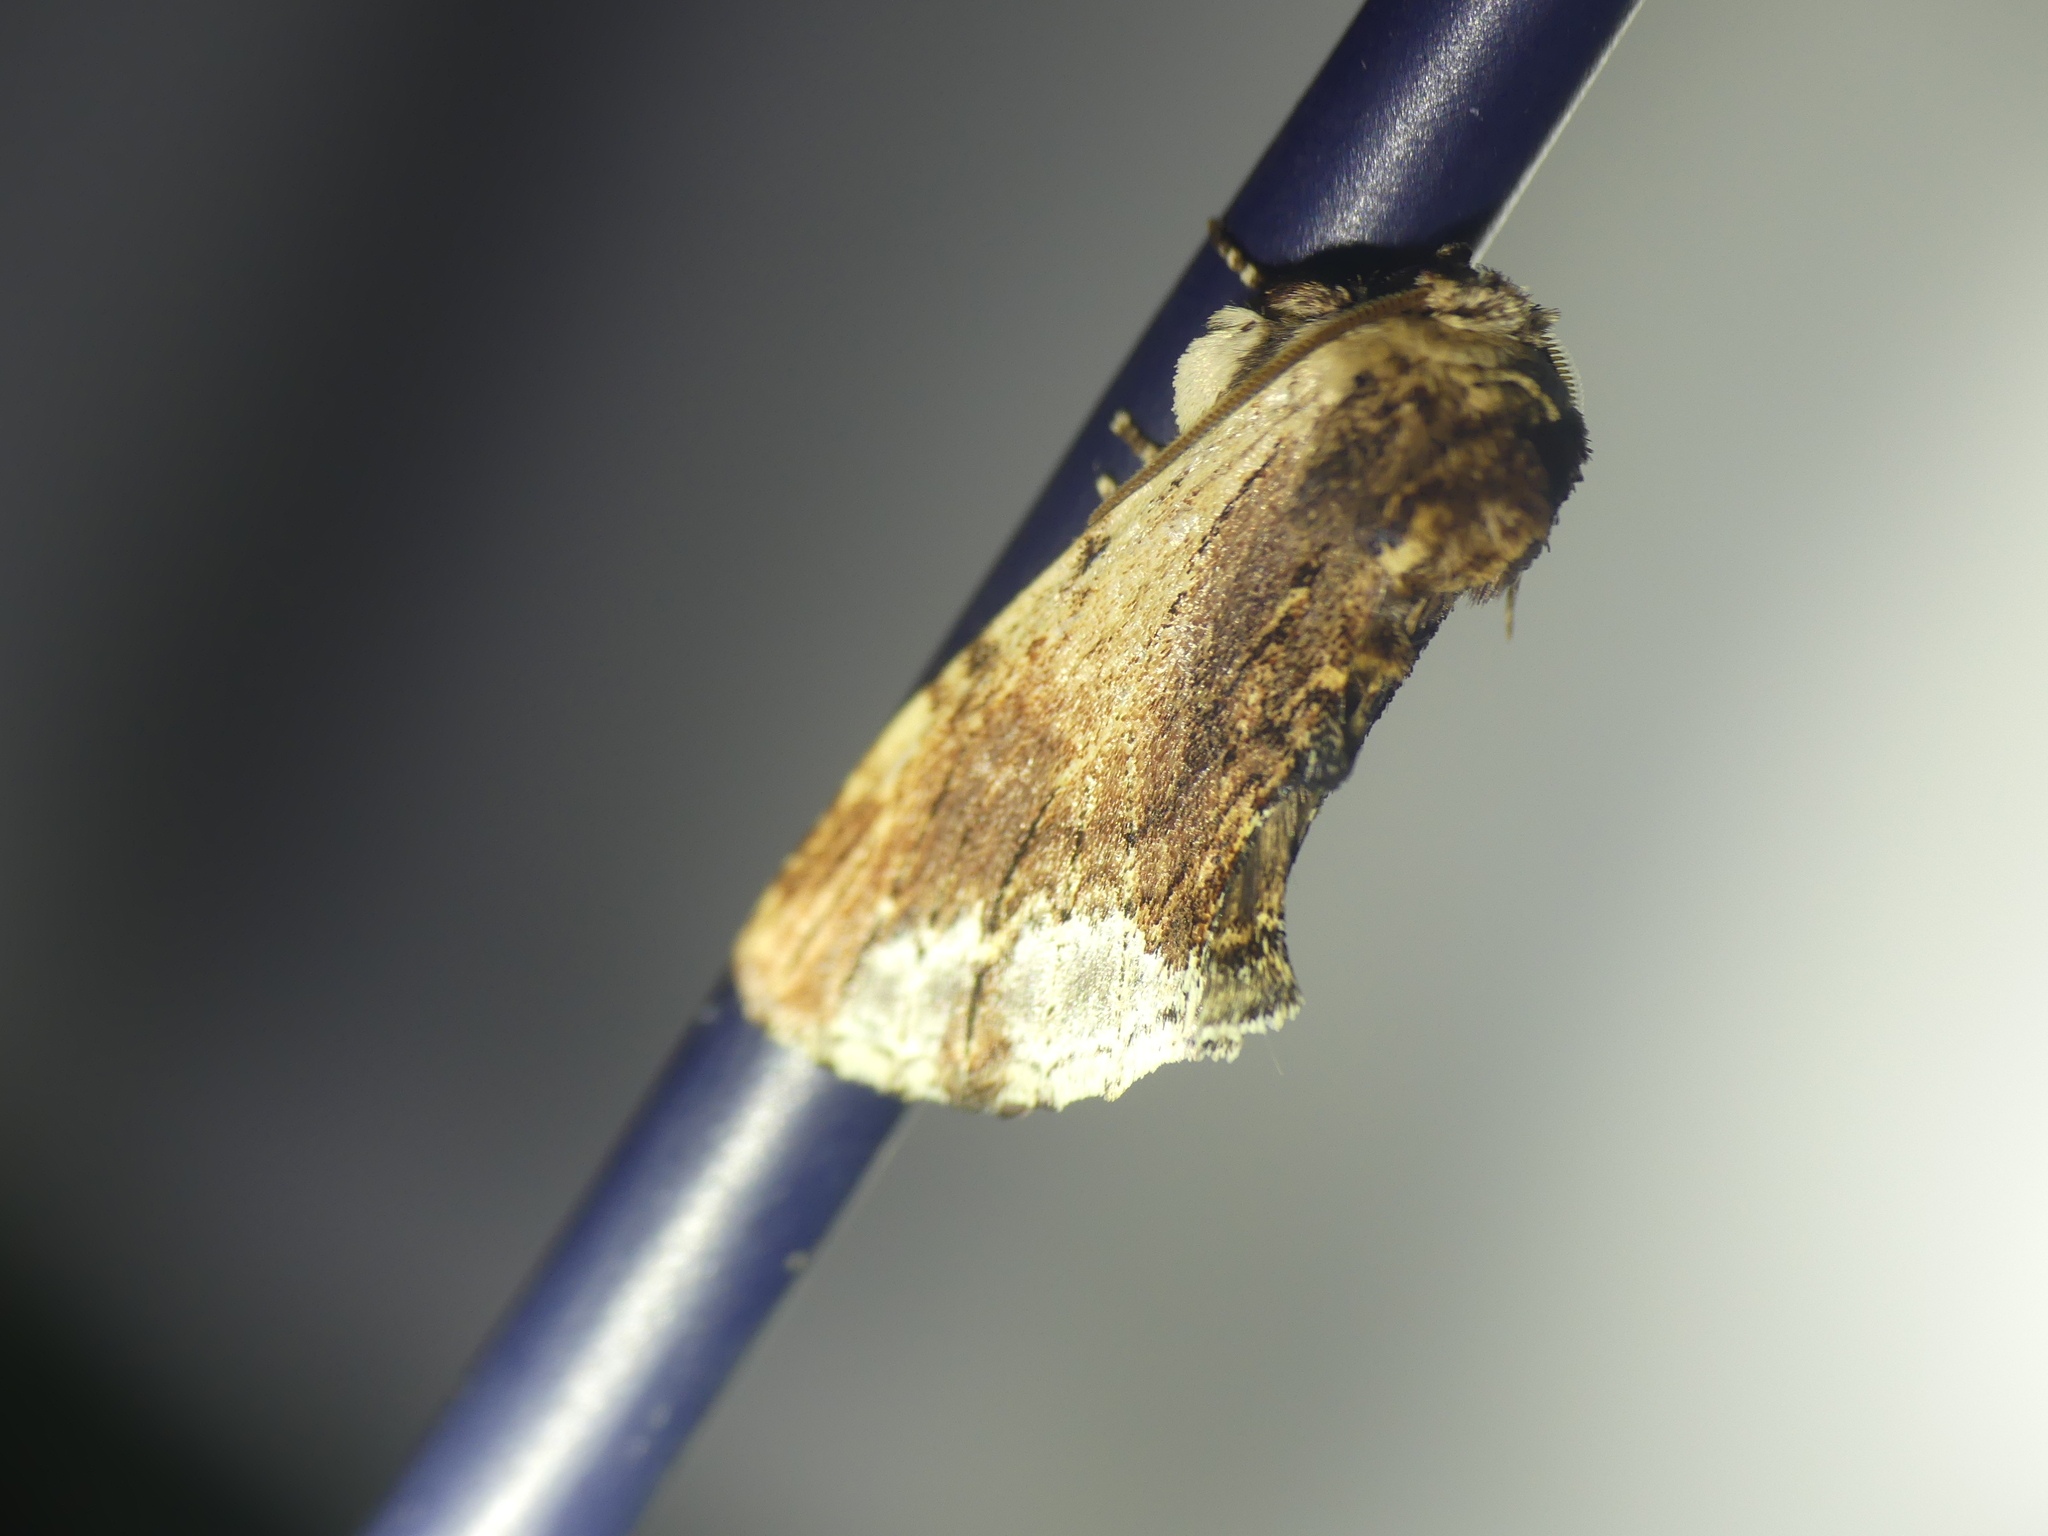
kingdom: Animalia
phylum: Arthropoda
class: Insecta
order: Lepidoptera
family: Notodontidae
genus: Ptilodon
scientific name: Ptilodon cucullina
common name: Maple prominent
